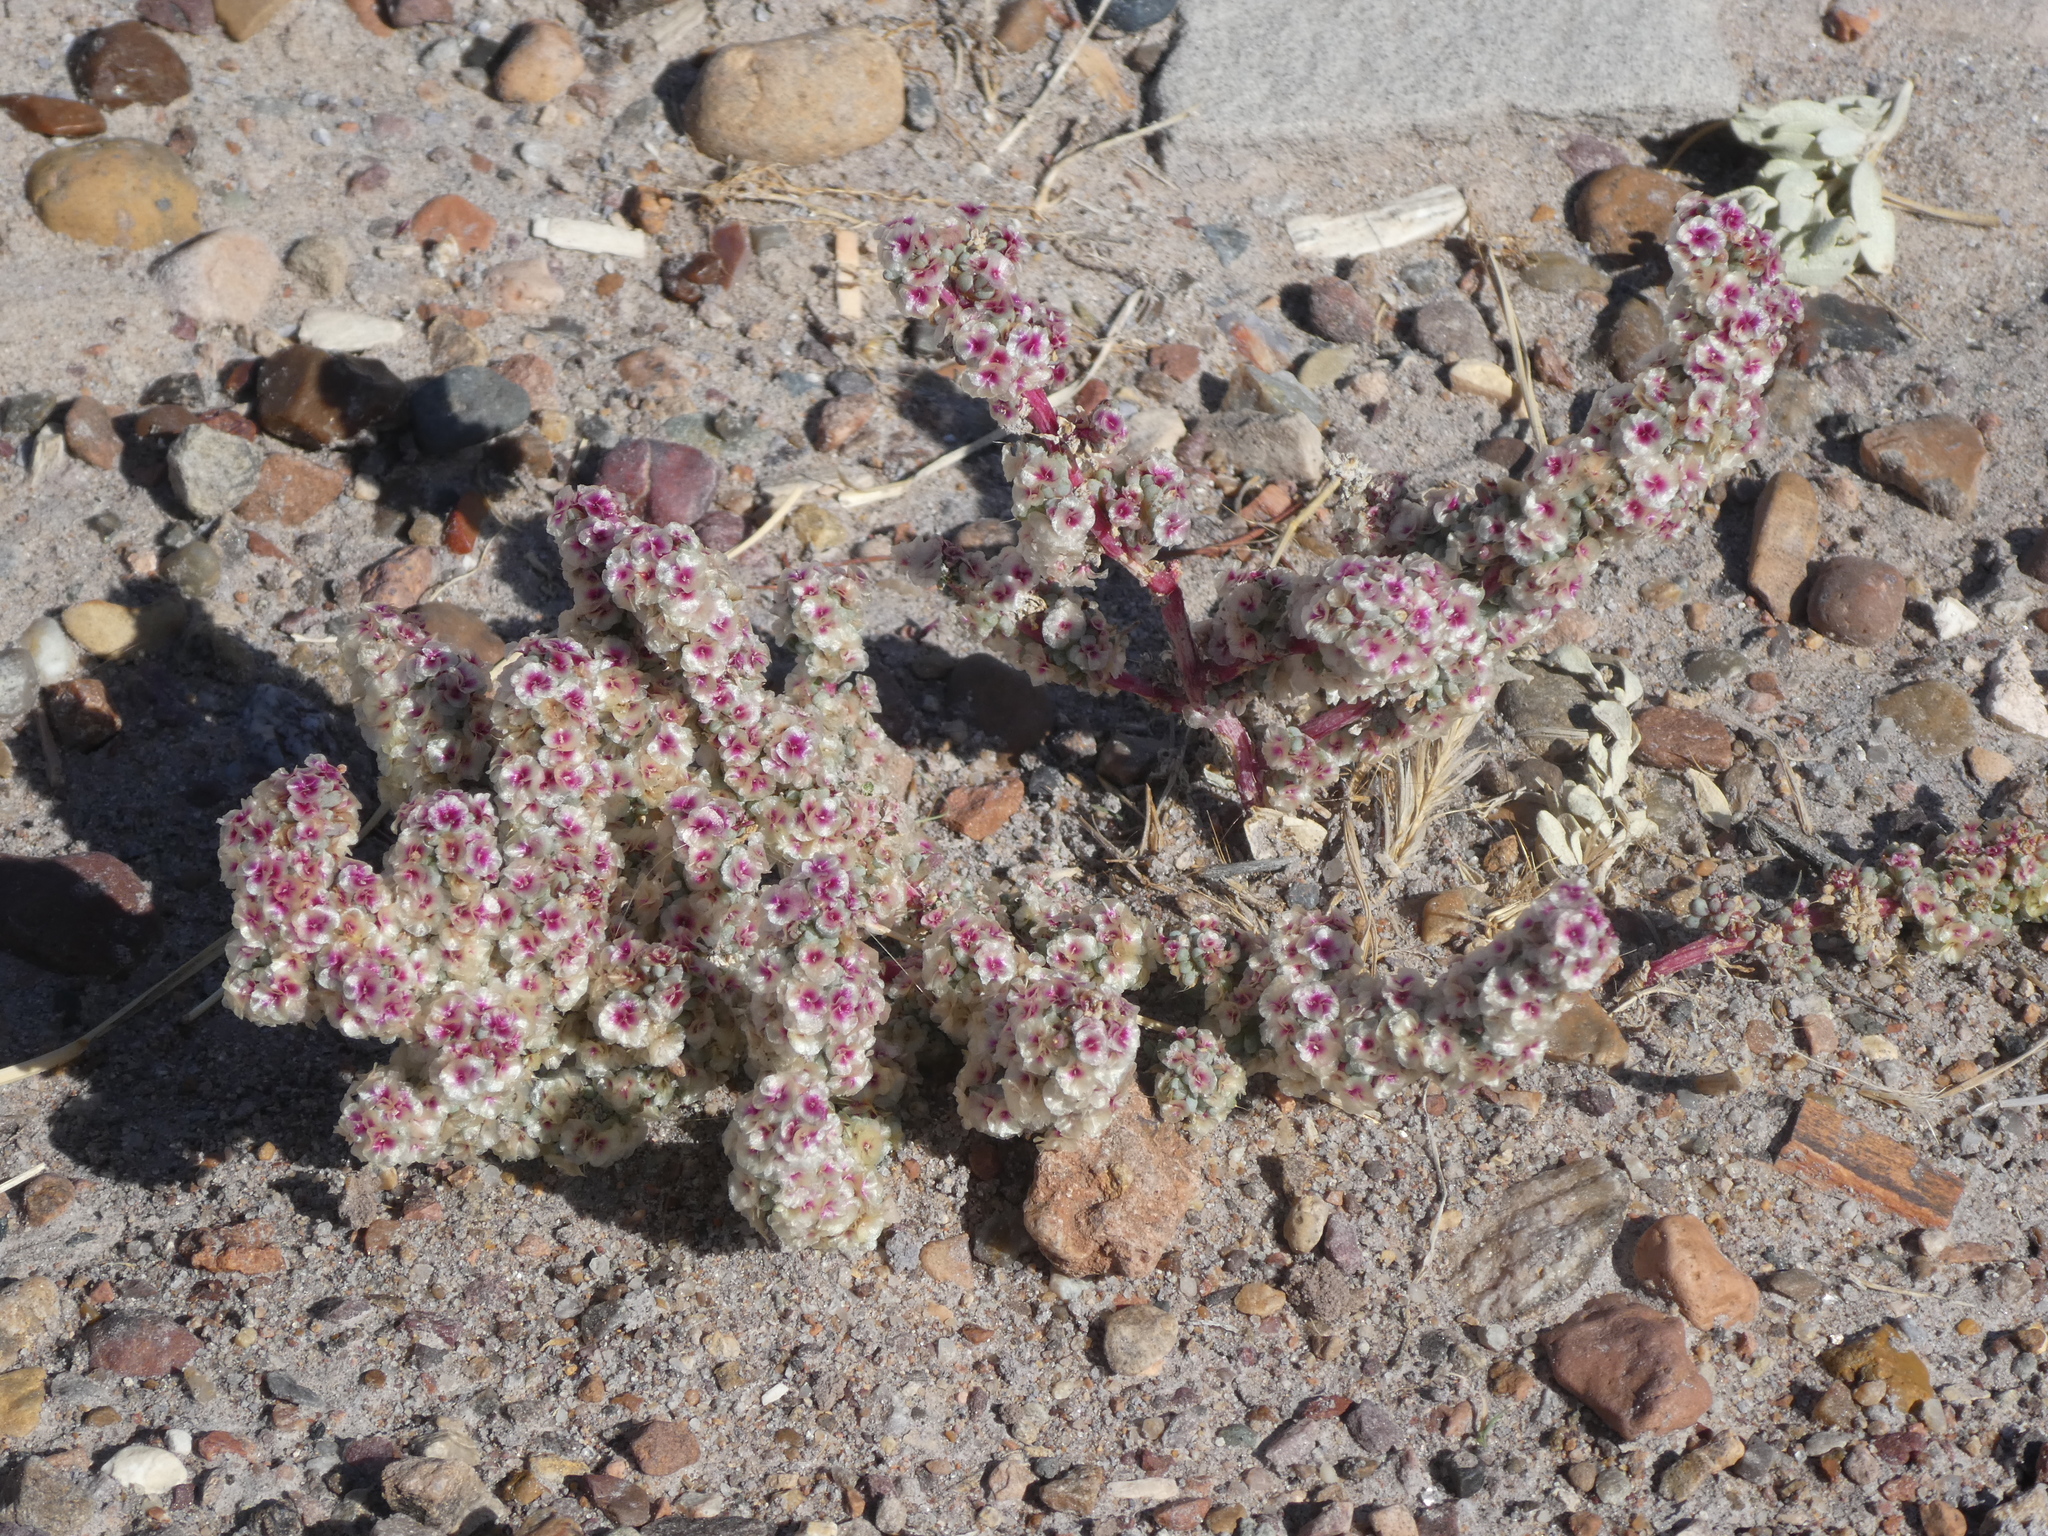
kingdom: Plantae
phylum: Tracheophyta
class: Magnoliopsida
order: Caryophyllales
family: Amaranthaceae
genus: Halogeton
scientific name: Halogeton glomeratus
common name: Saltlover
